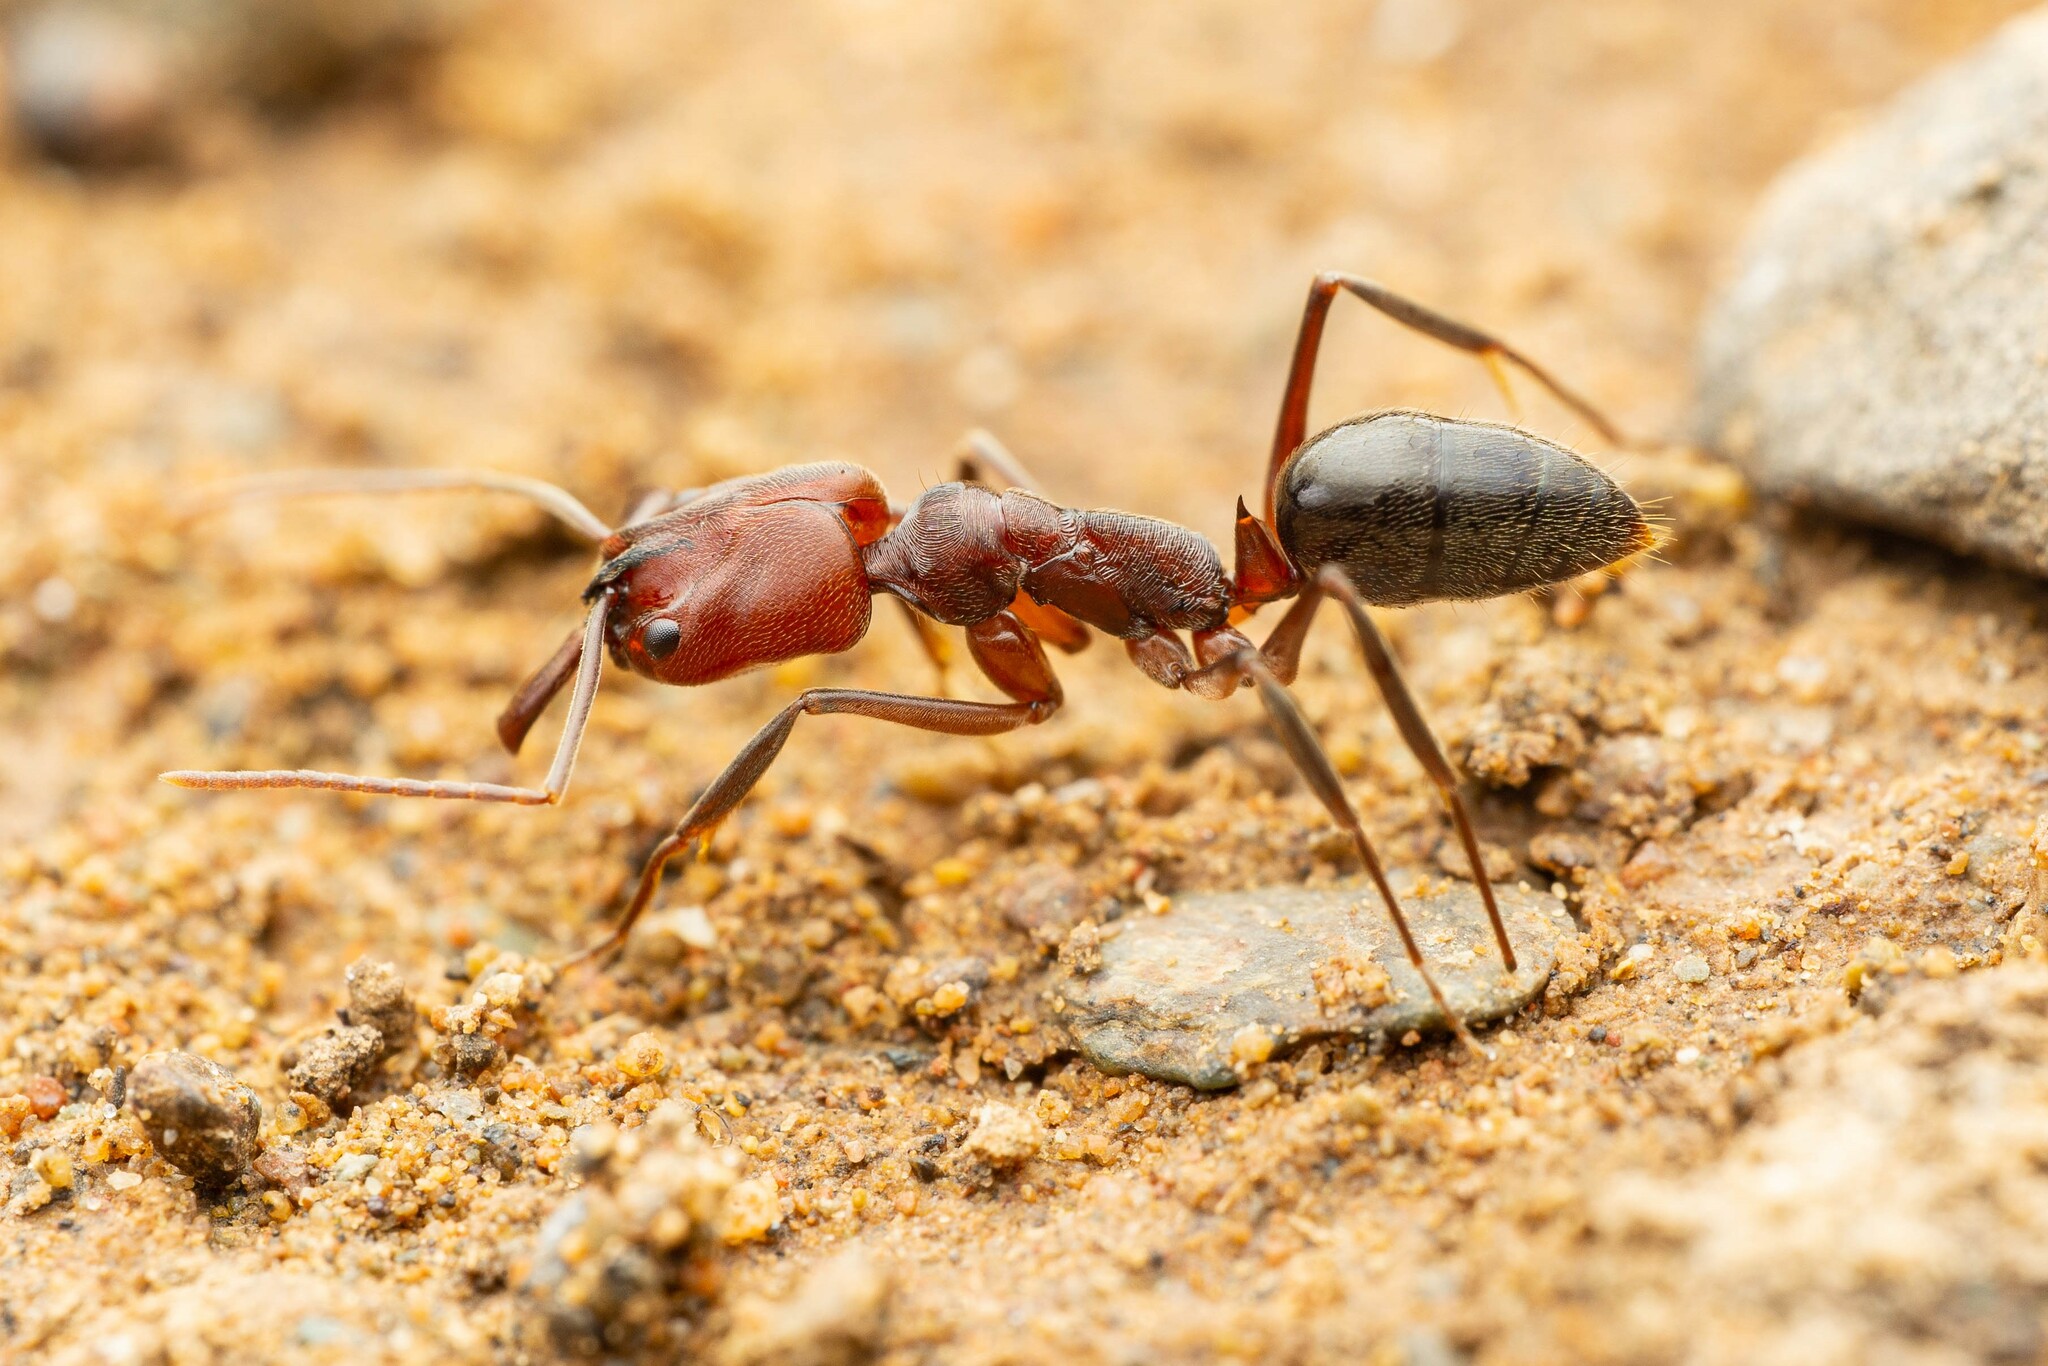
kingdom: Animalia
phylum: Arthropoda
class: Insecta
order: Hymenoptera
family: Formicidae
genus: Odontomachus
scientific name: Odontomachus
